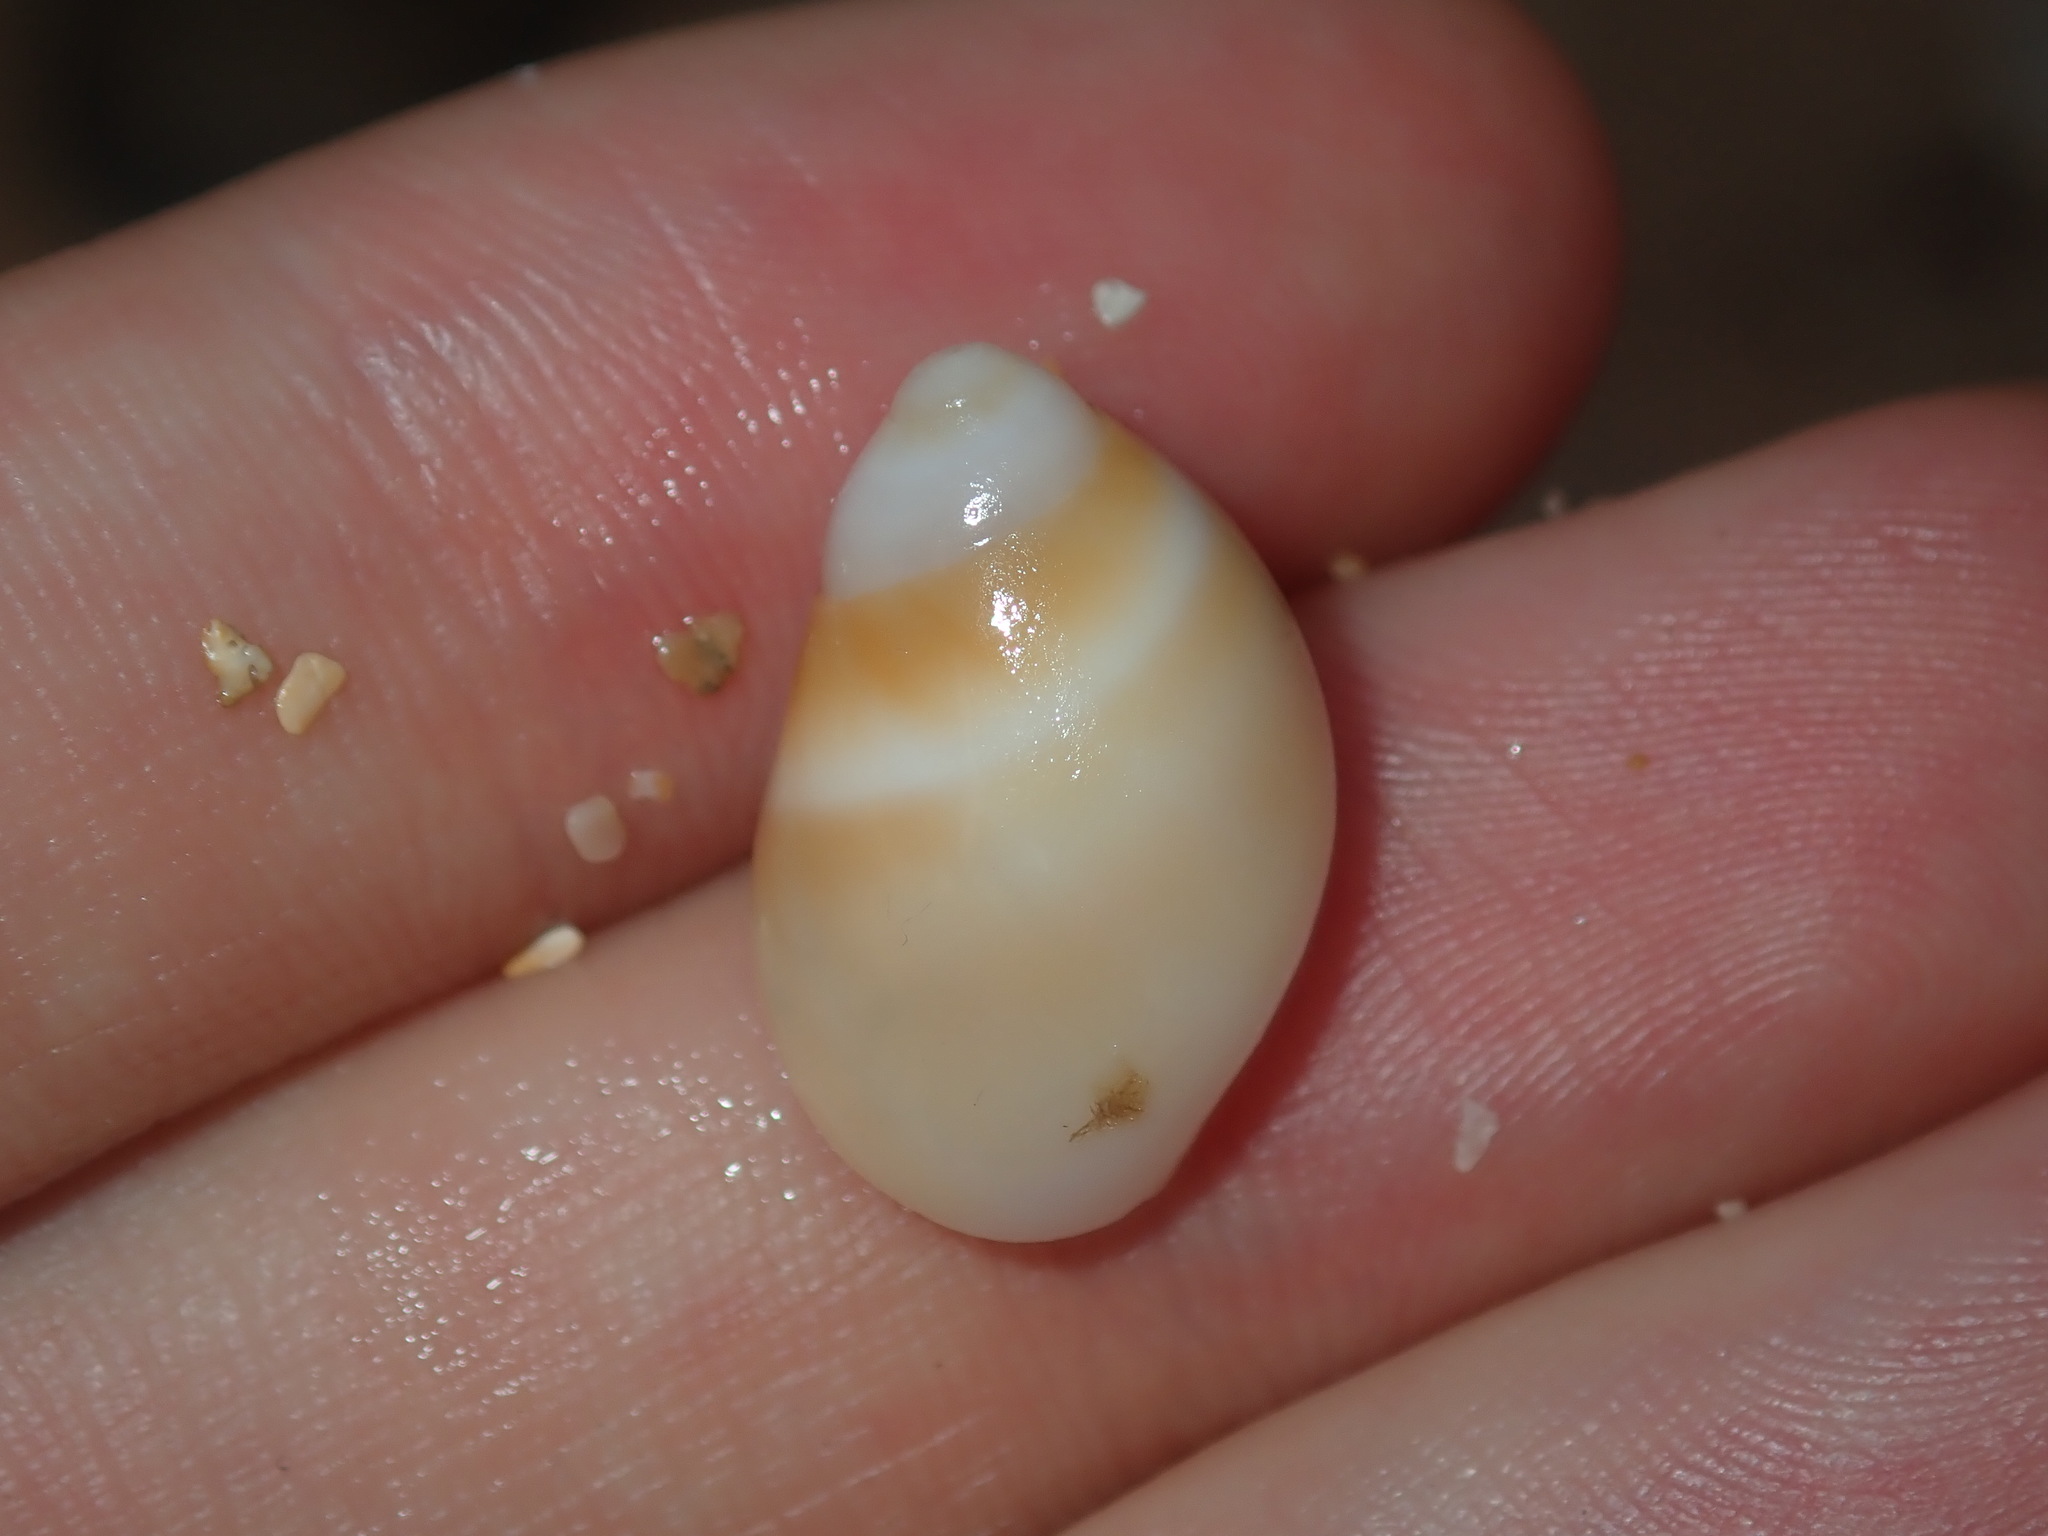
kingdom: Animalia
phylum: Mollusca
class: Gastropoda
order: Littorinimorpha
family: Naticidae
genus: Conuber
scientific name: Conuber conicum
